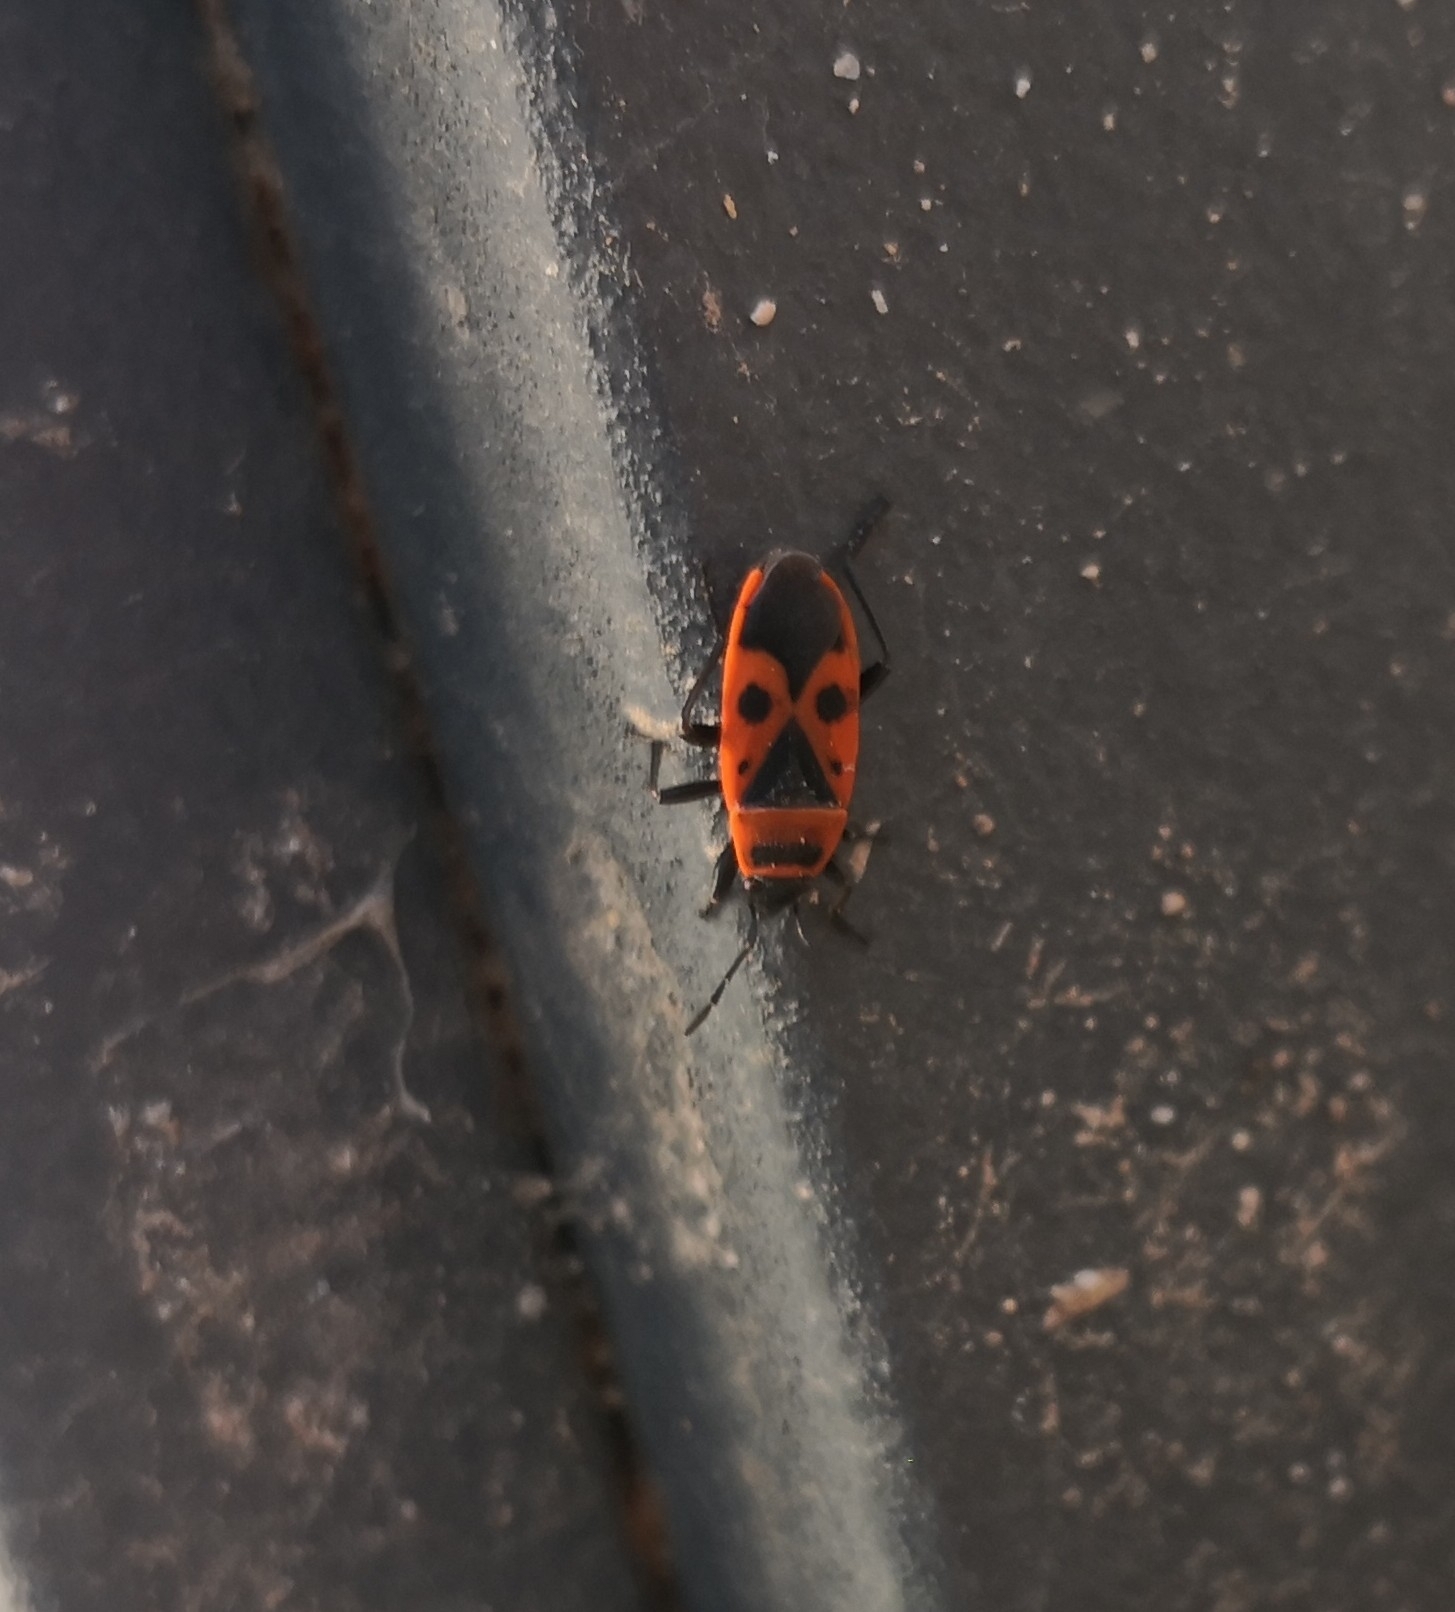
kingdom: Animalia
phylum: Arthropoda
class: Insecta
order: Hemiptera
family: Pyrrhocoridae
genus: Pyrrhocoris
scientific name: Pyrrhocoris apterus
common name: Firebug
